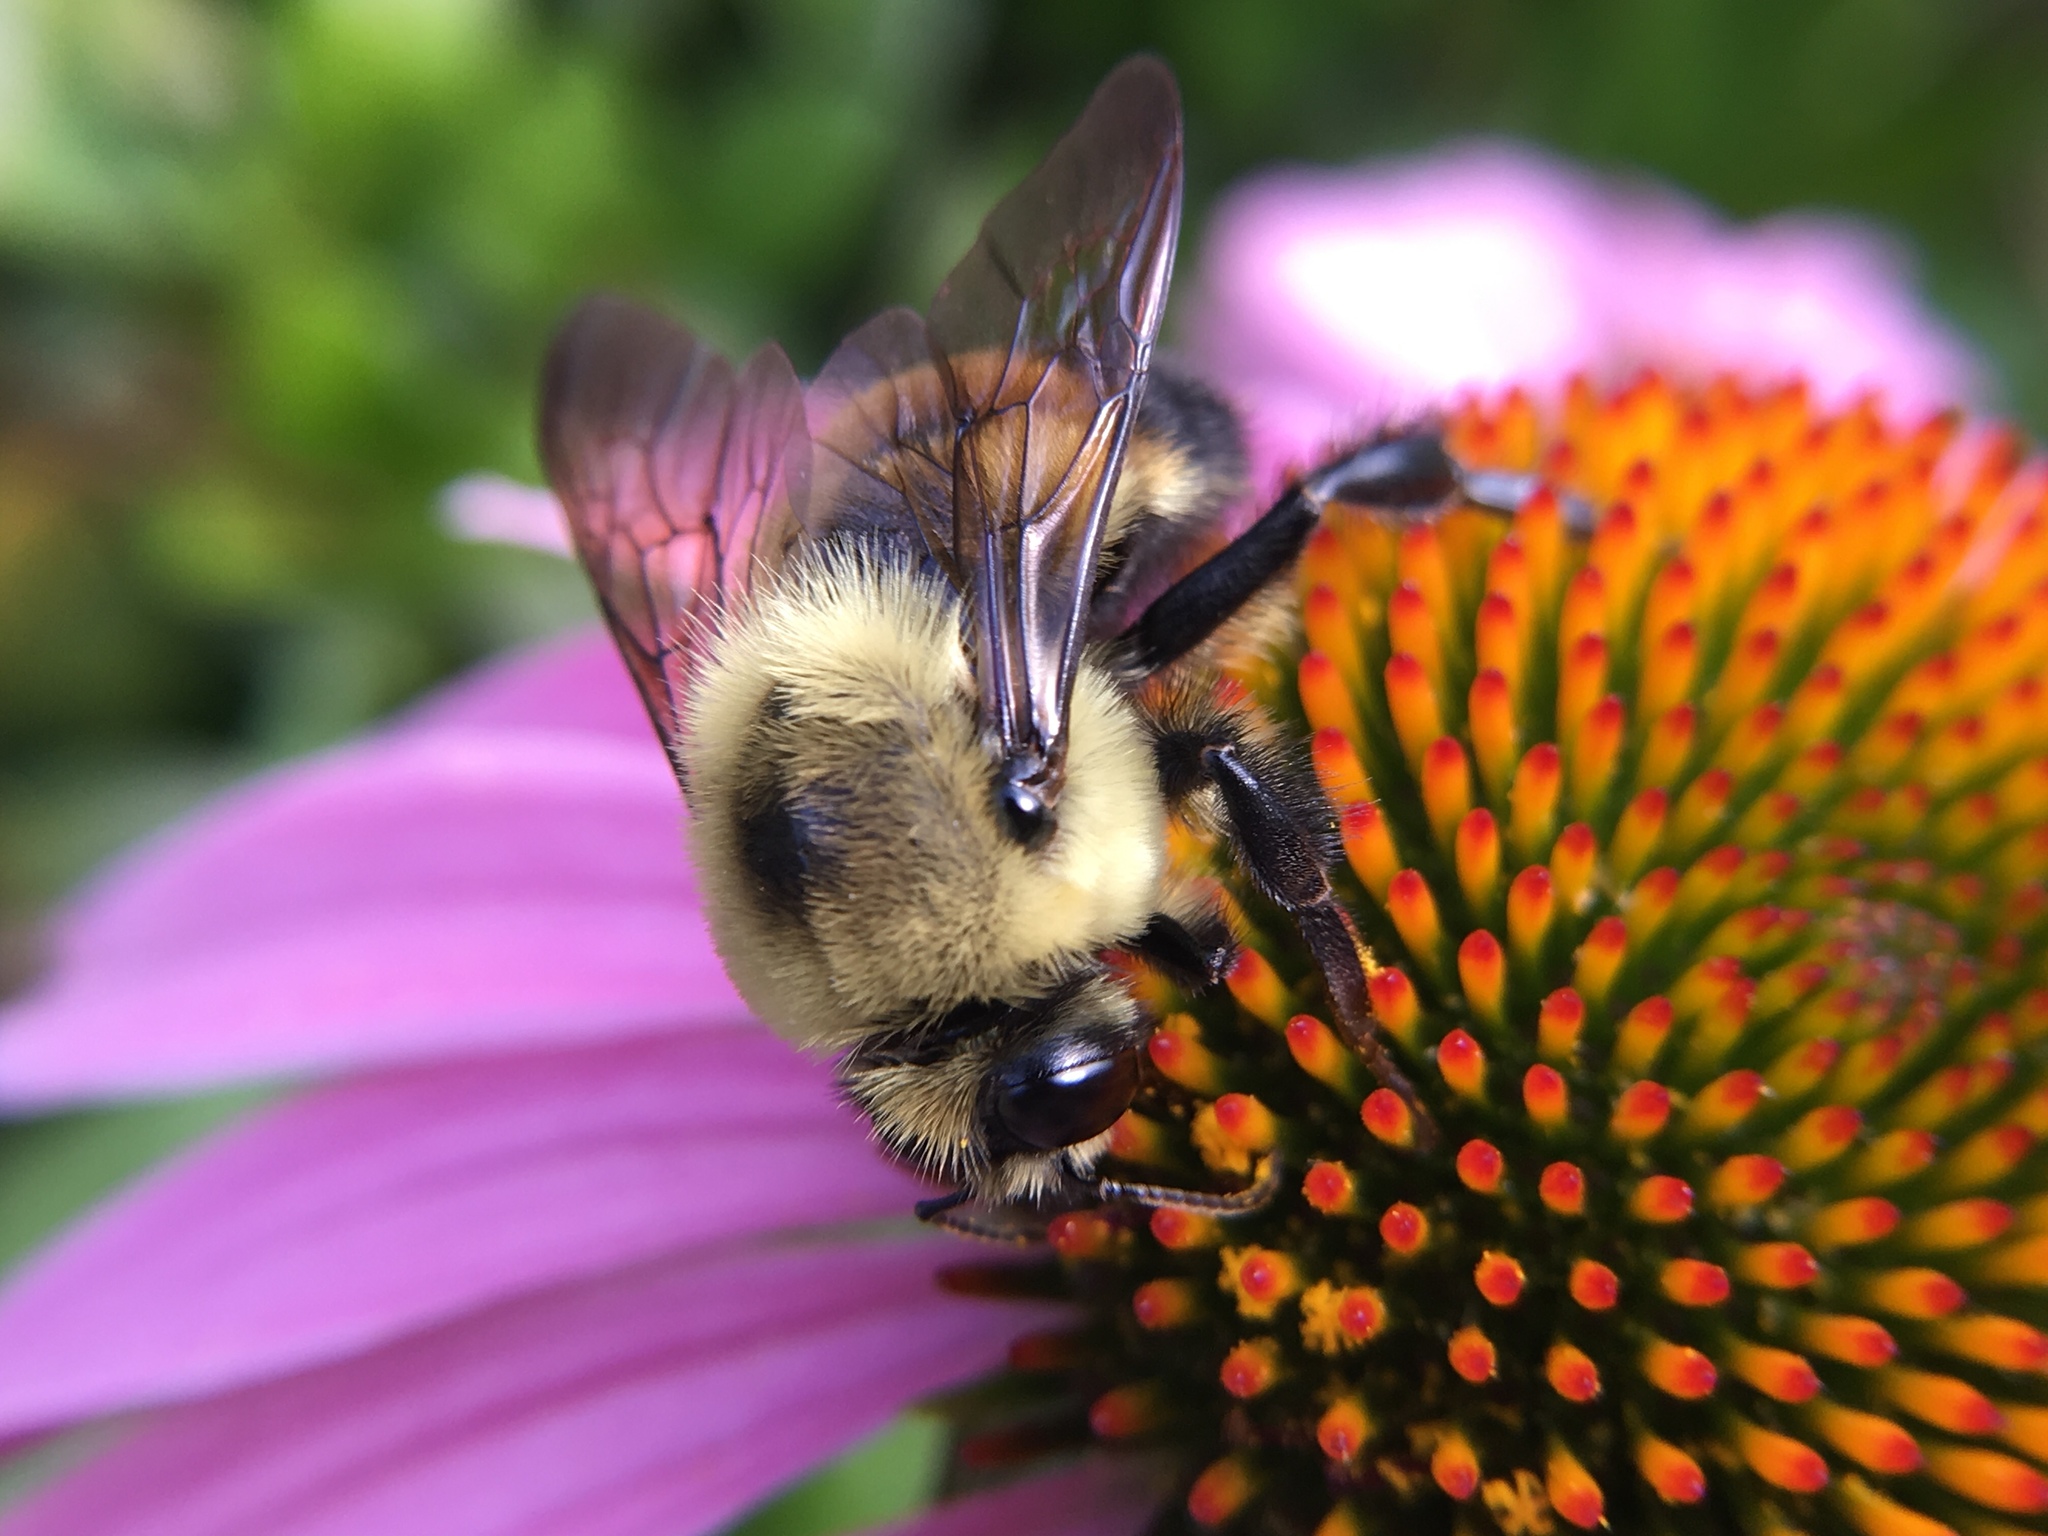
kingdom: Animalia
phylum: Arthropoda
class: Insecta
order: Hymenoptera
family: Apidae
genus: Bombus
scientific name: Bombus griseocollis
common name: Brown-belted bumble bee
